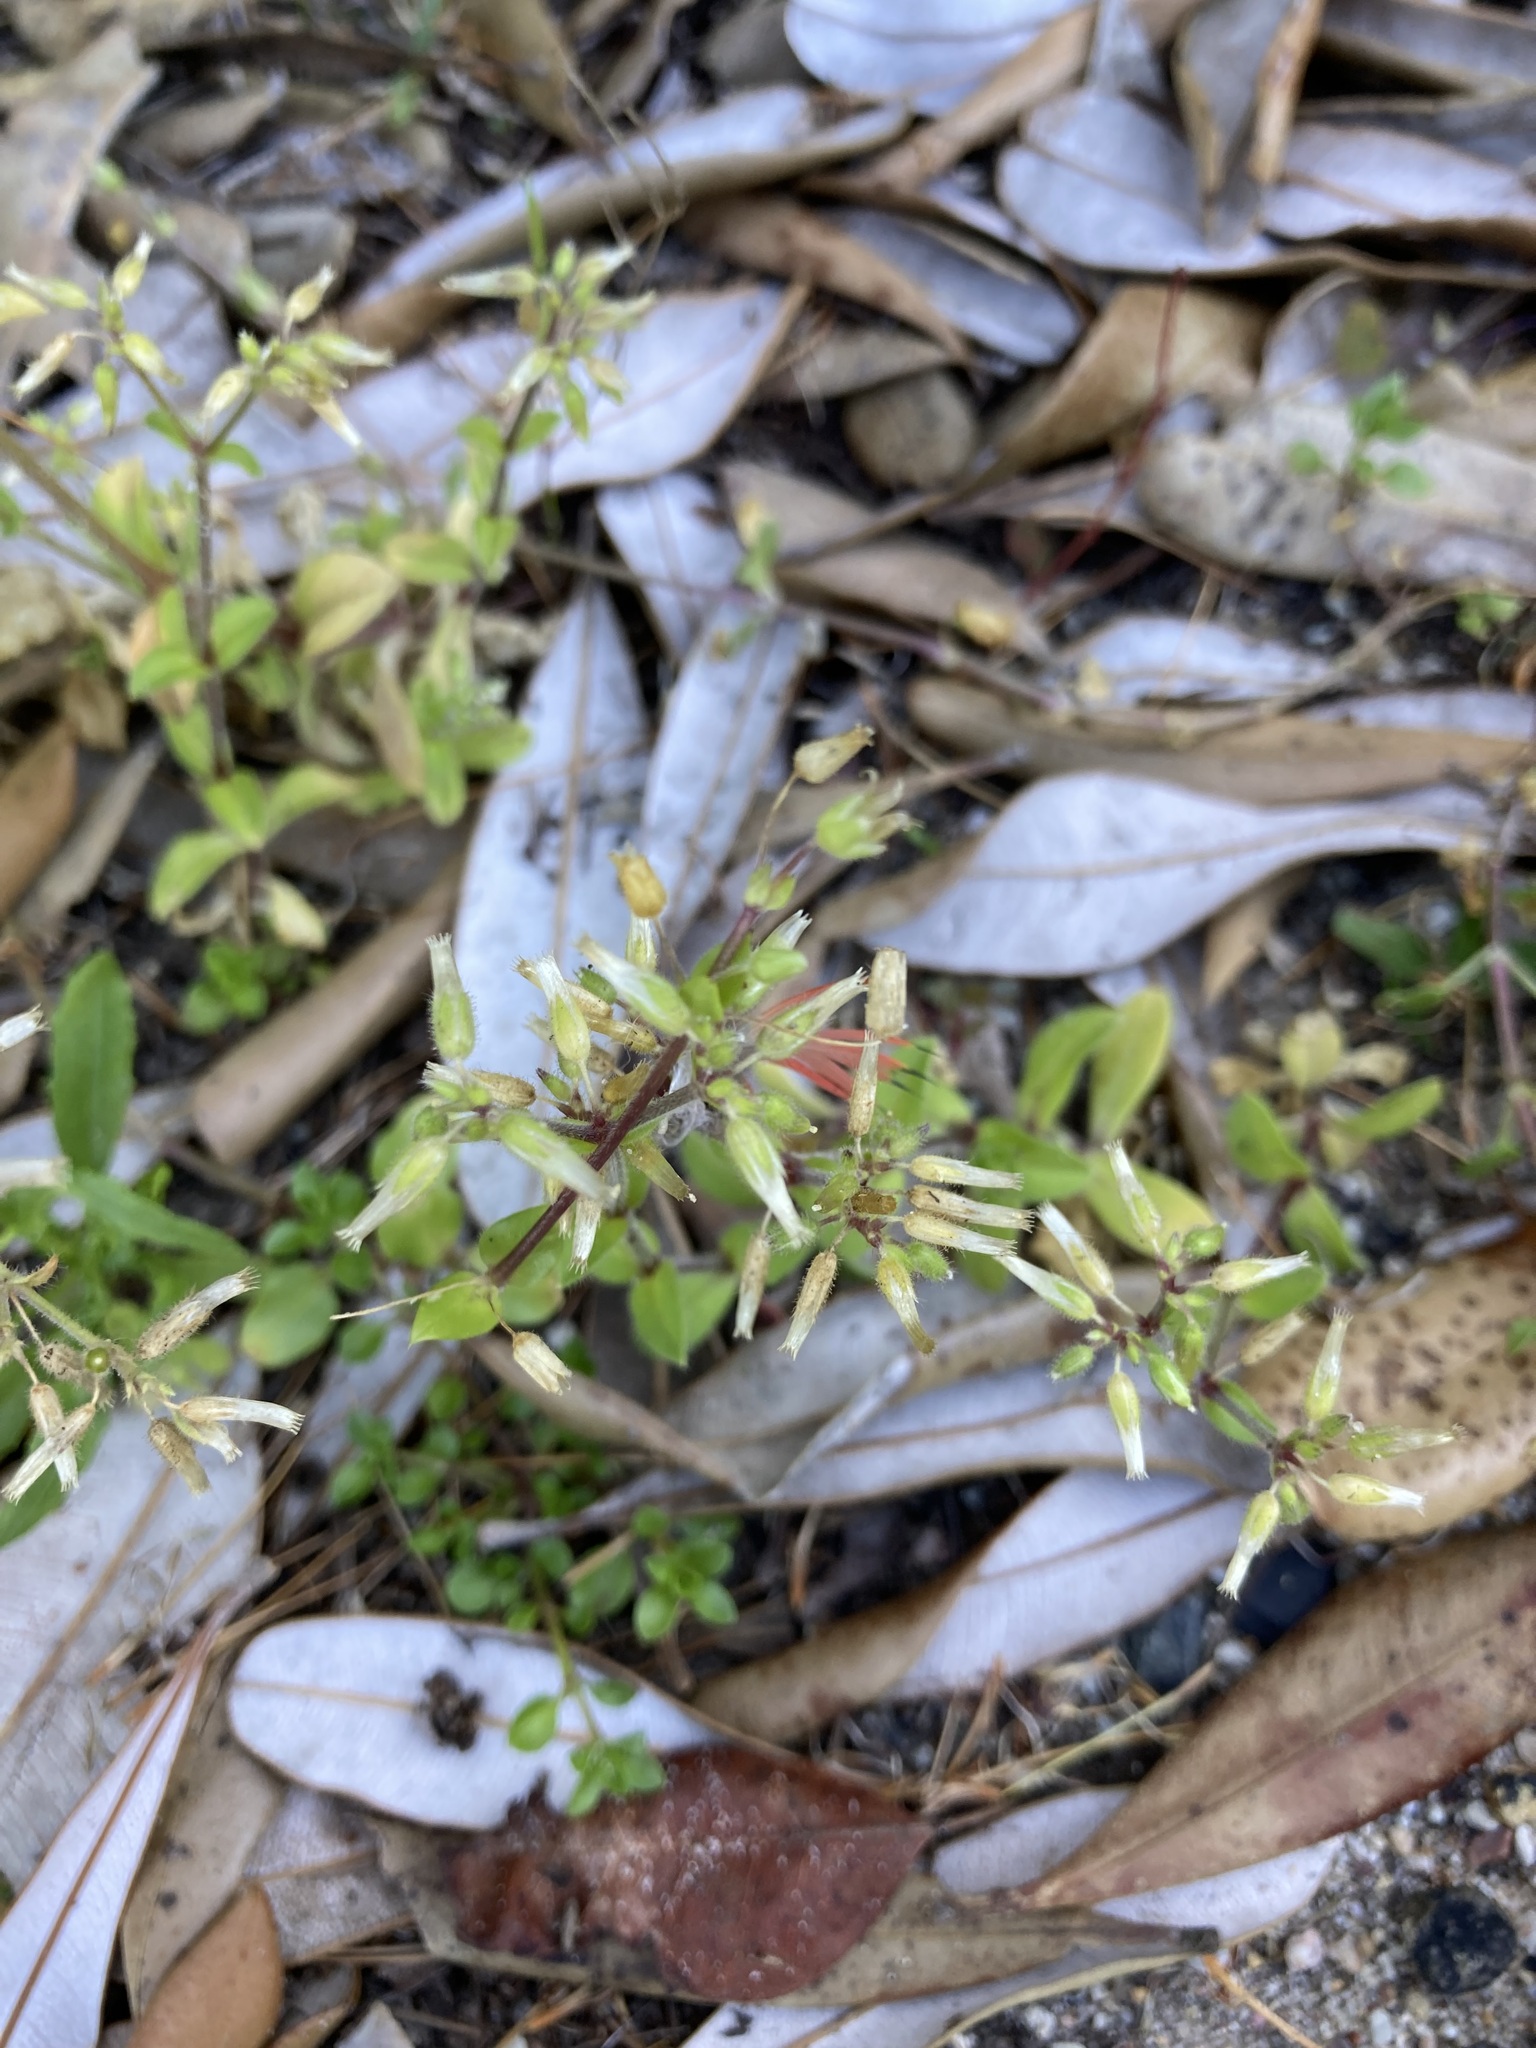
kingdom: Plantae
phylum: Tracheophyta
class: Magnoliopsida
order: Caryophyllales
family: Caryophyllaceae
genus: Cerastium
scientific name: Cerastium glomeratum
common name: Sticky chickweed
